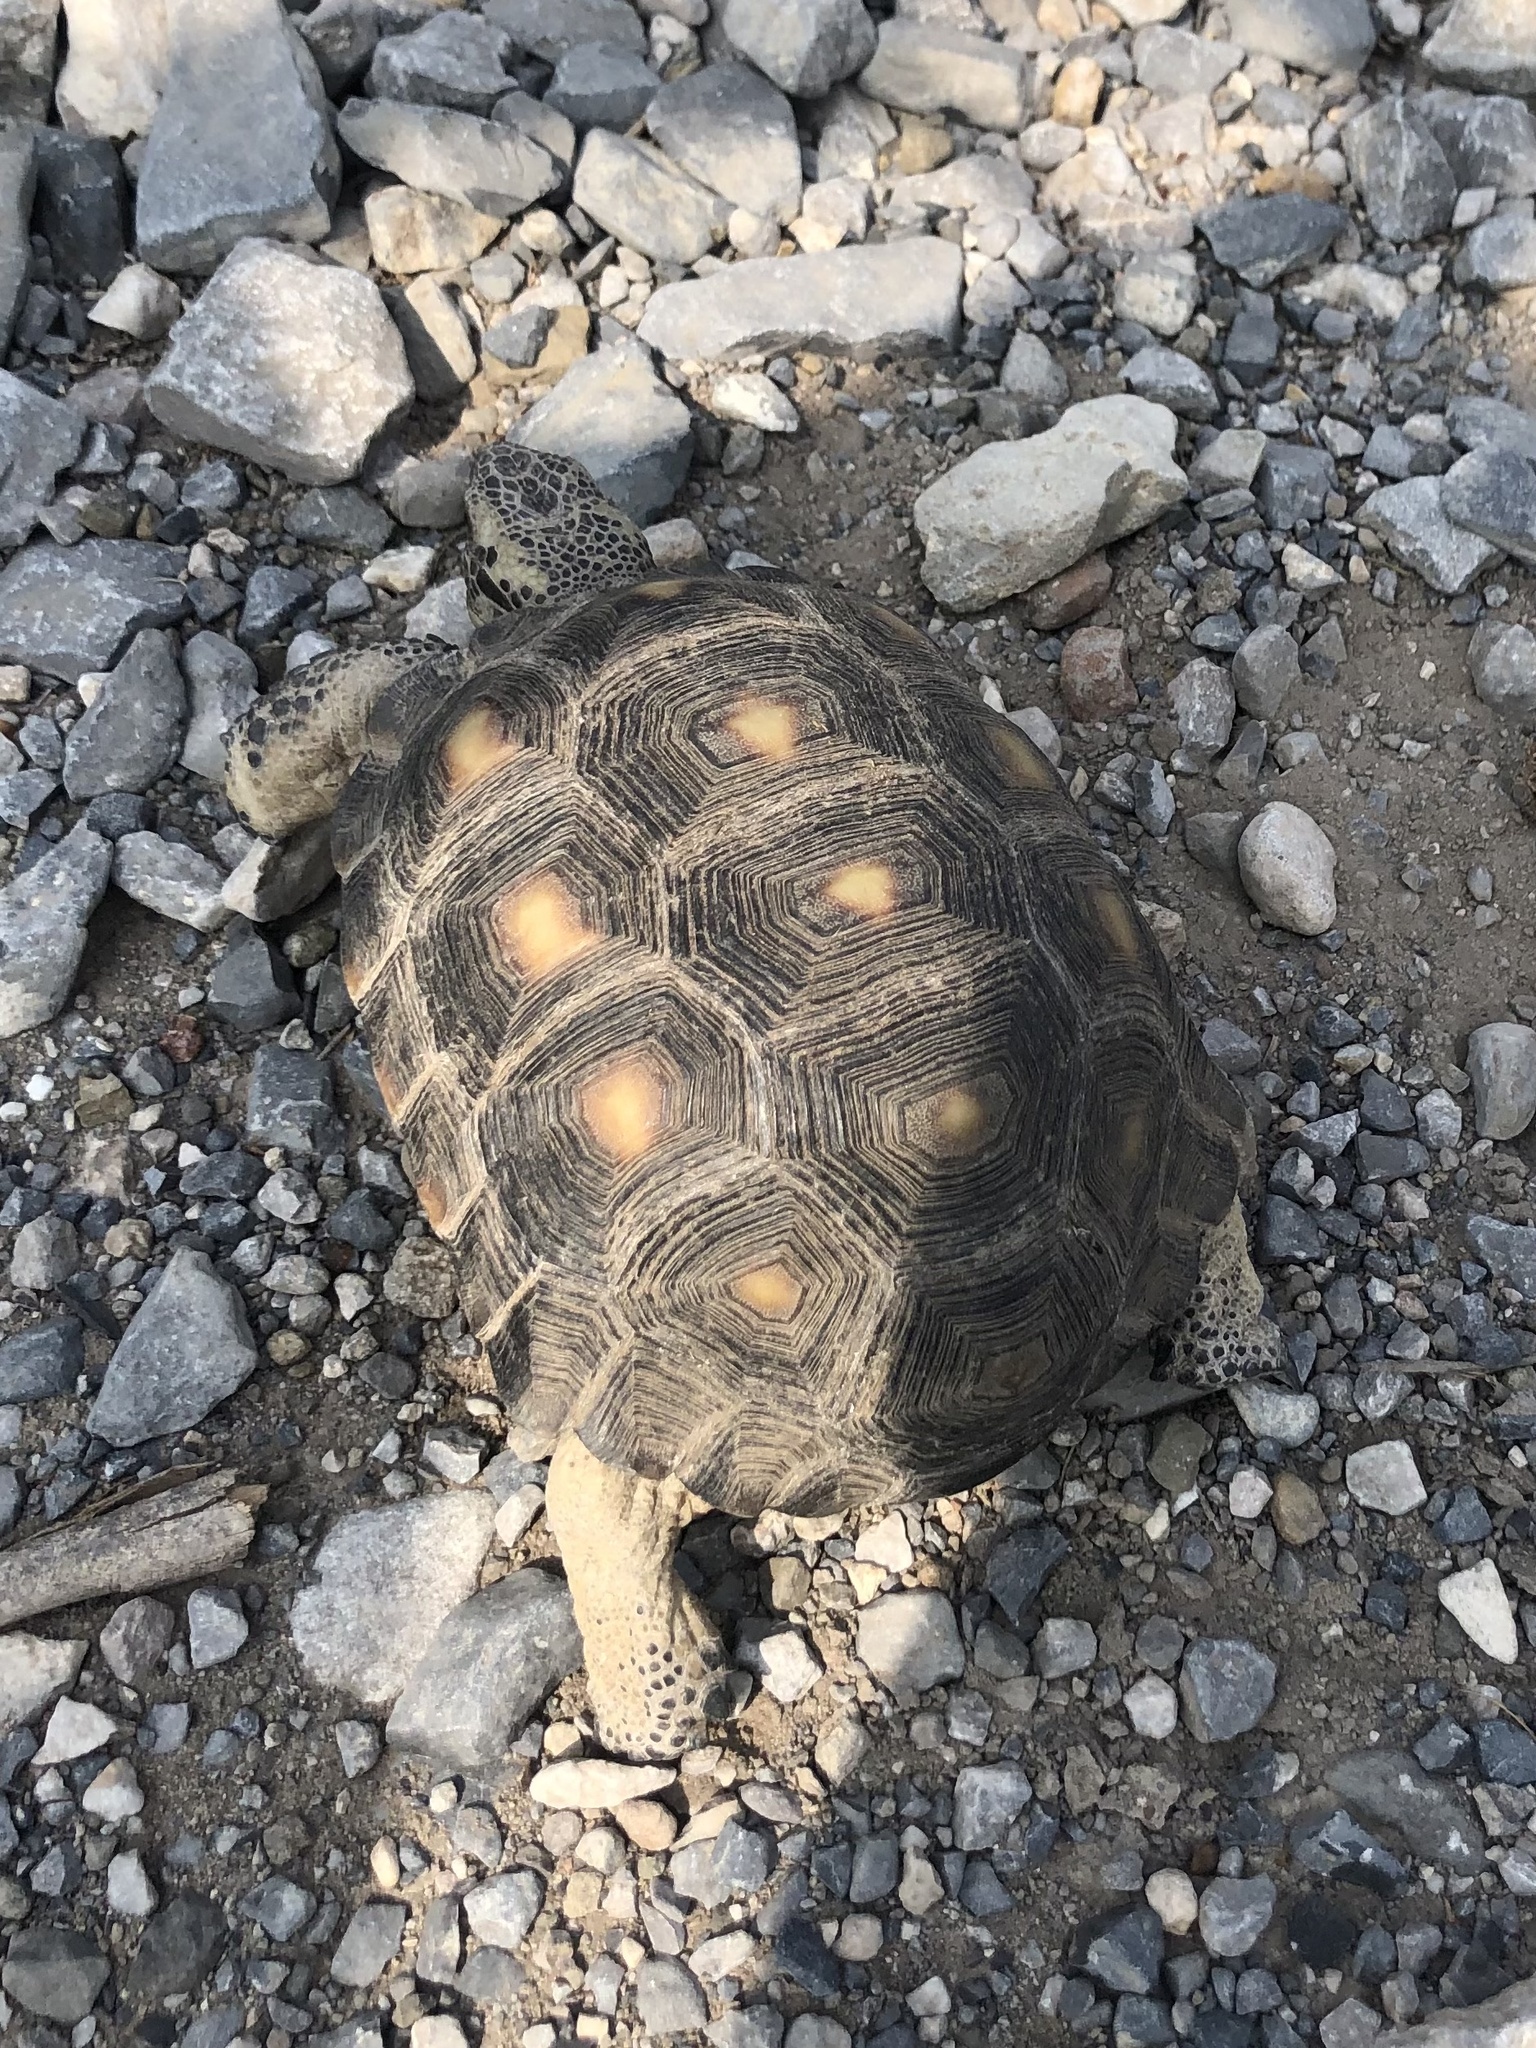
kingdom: Animalia
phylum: Chordata
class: Testudines
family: Testudinidae
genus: Gopherus
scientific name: Gopherus berlandieri
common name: Texas (gopher )tortoise
